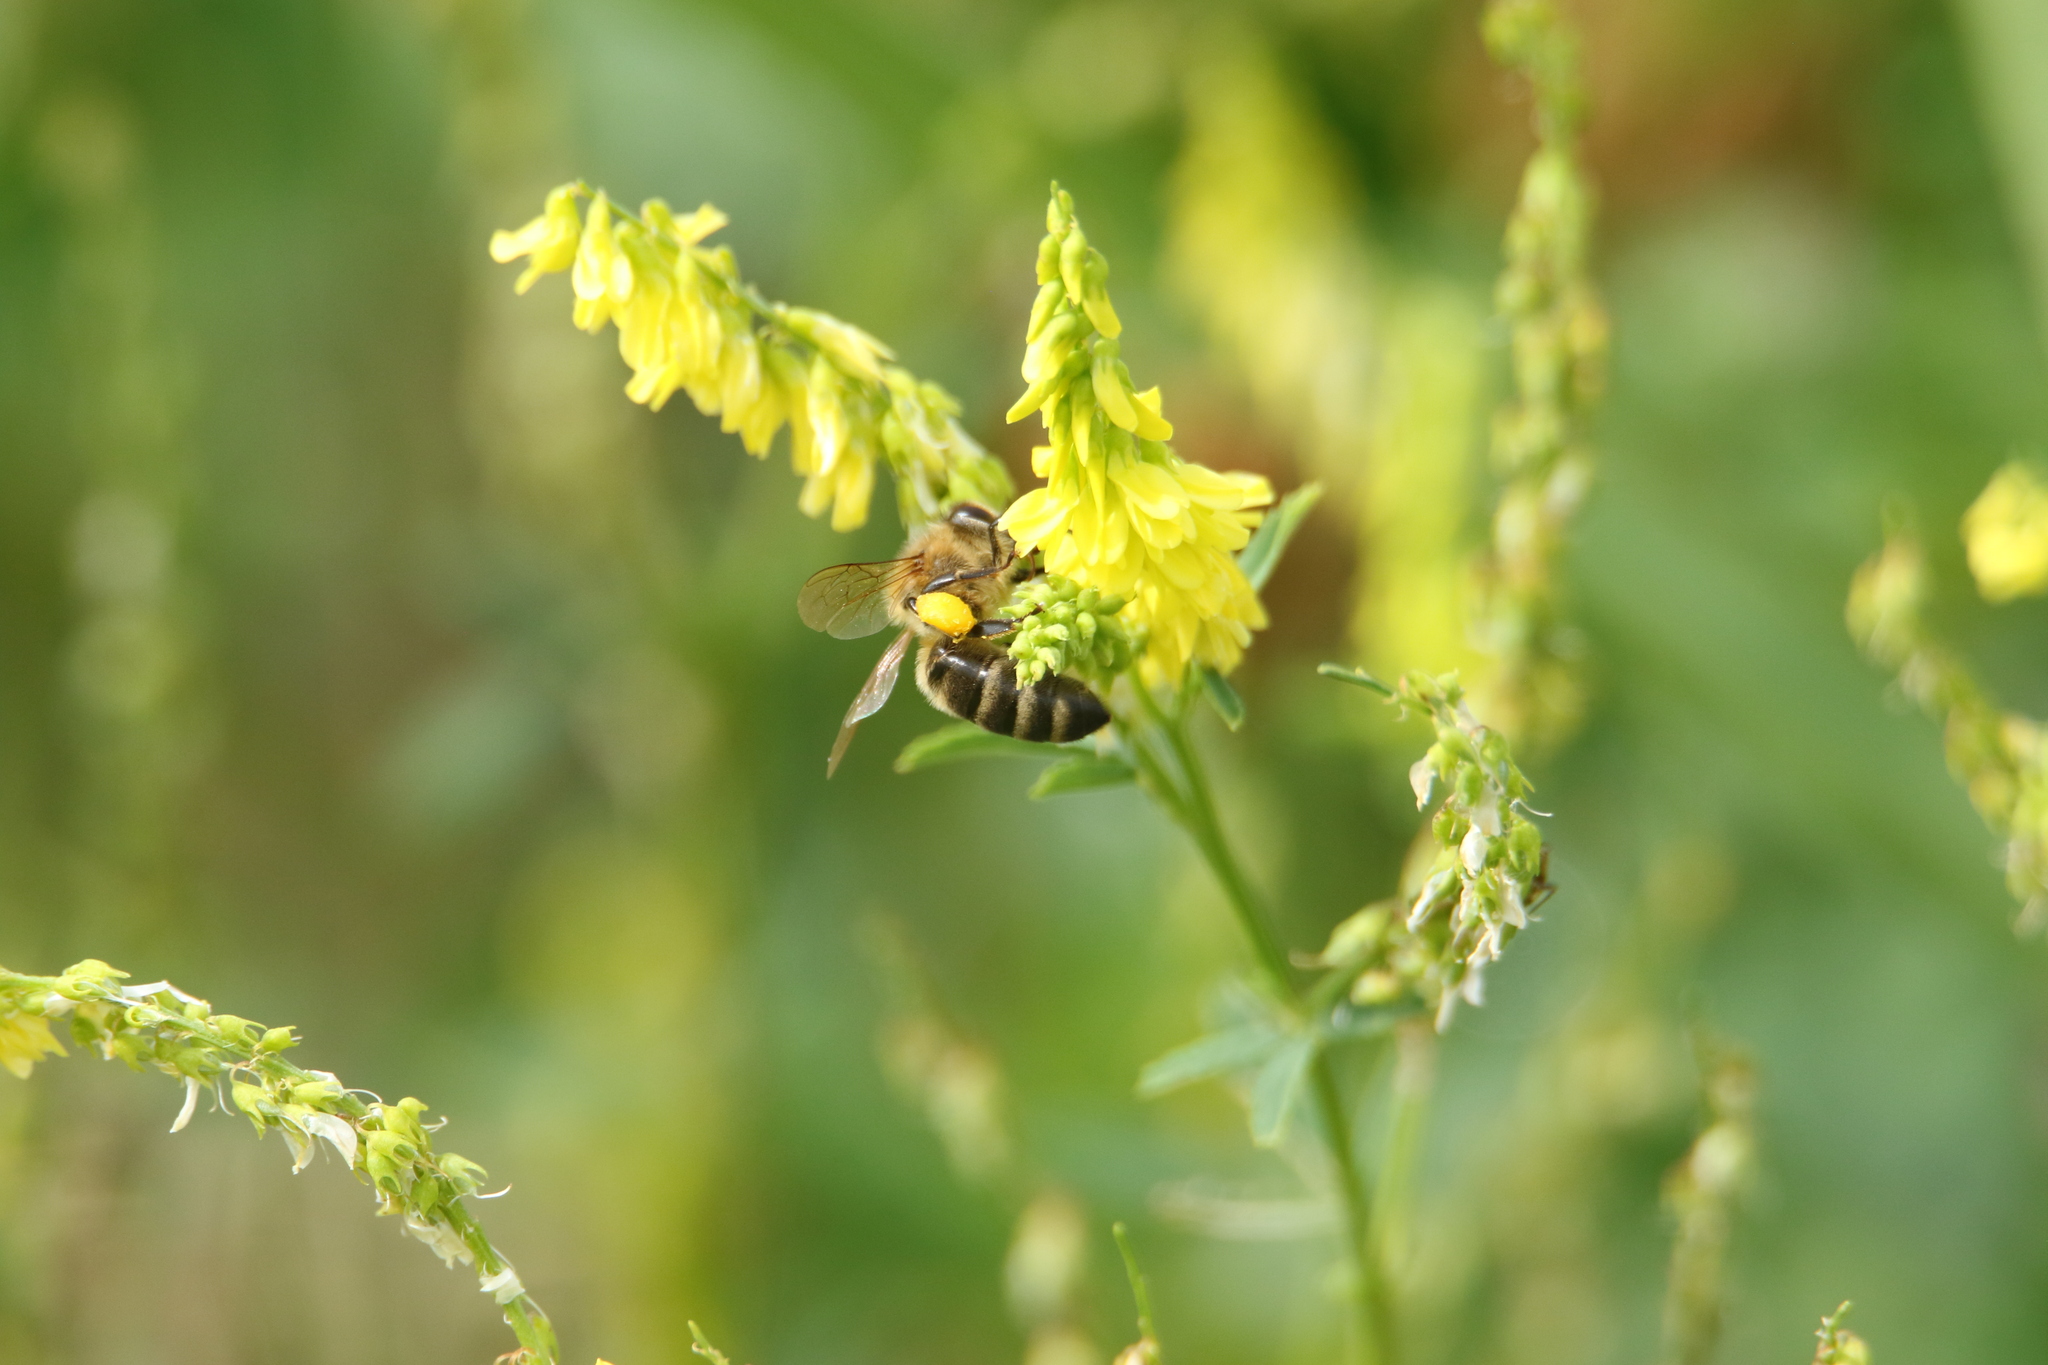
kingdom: Animalia
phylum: Arthropoda
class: Insecta
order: Hymenoptera
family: Apidae
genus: Apis
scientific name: Apis mellifera
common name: Honey bee
